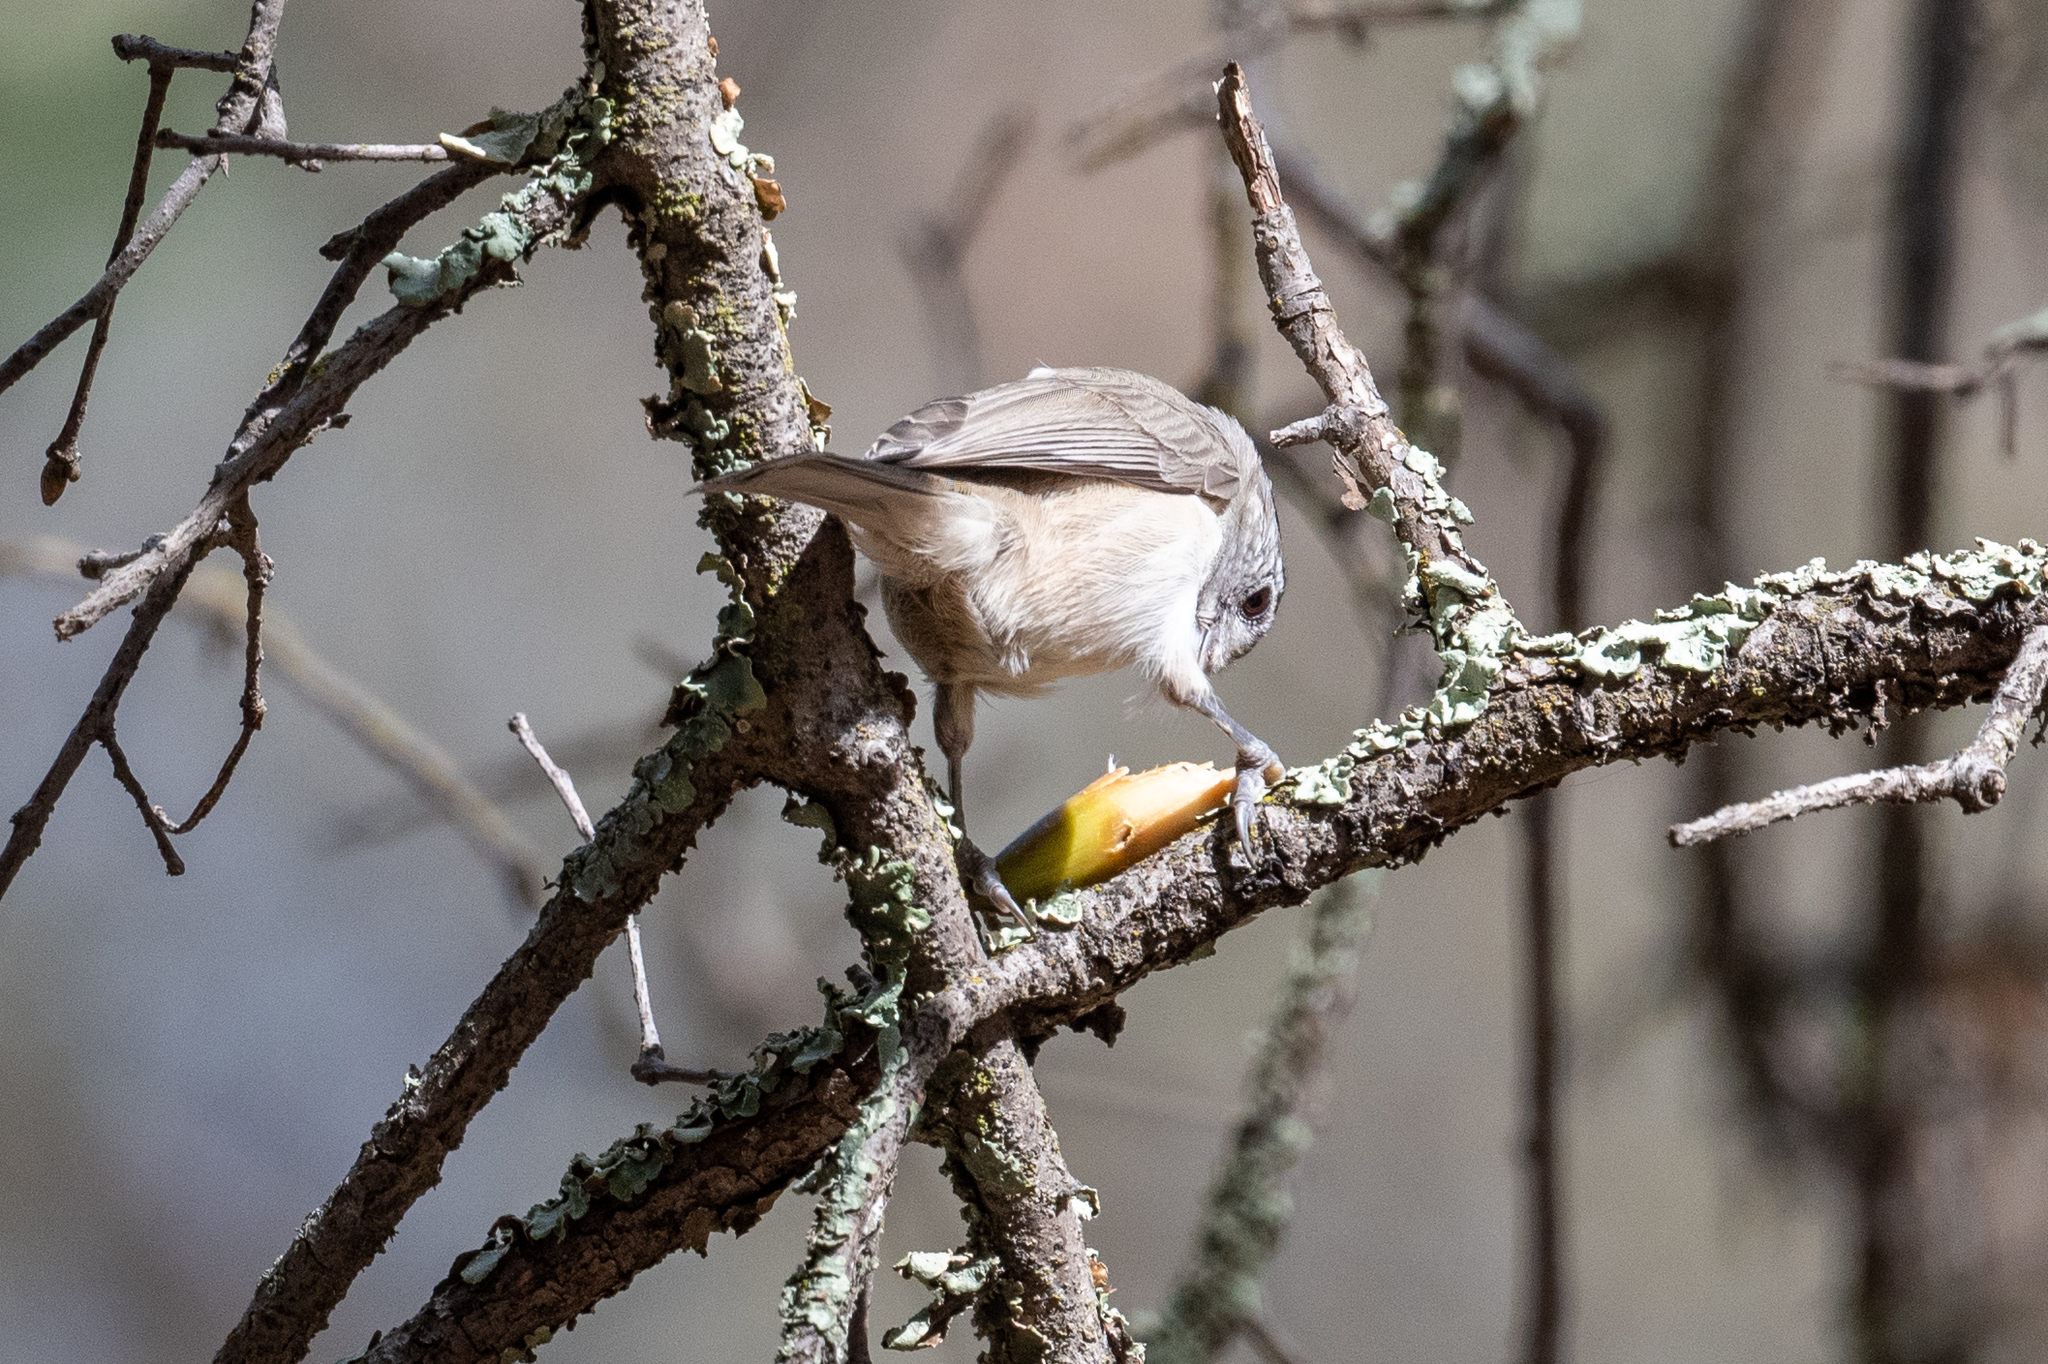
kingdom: Animalia
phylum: Chordata
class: Aves
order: Passeriformes
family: Paridae
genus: Baeolophus
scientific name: Baeolophus inornatus
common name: Oak titmouse
